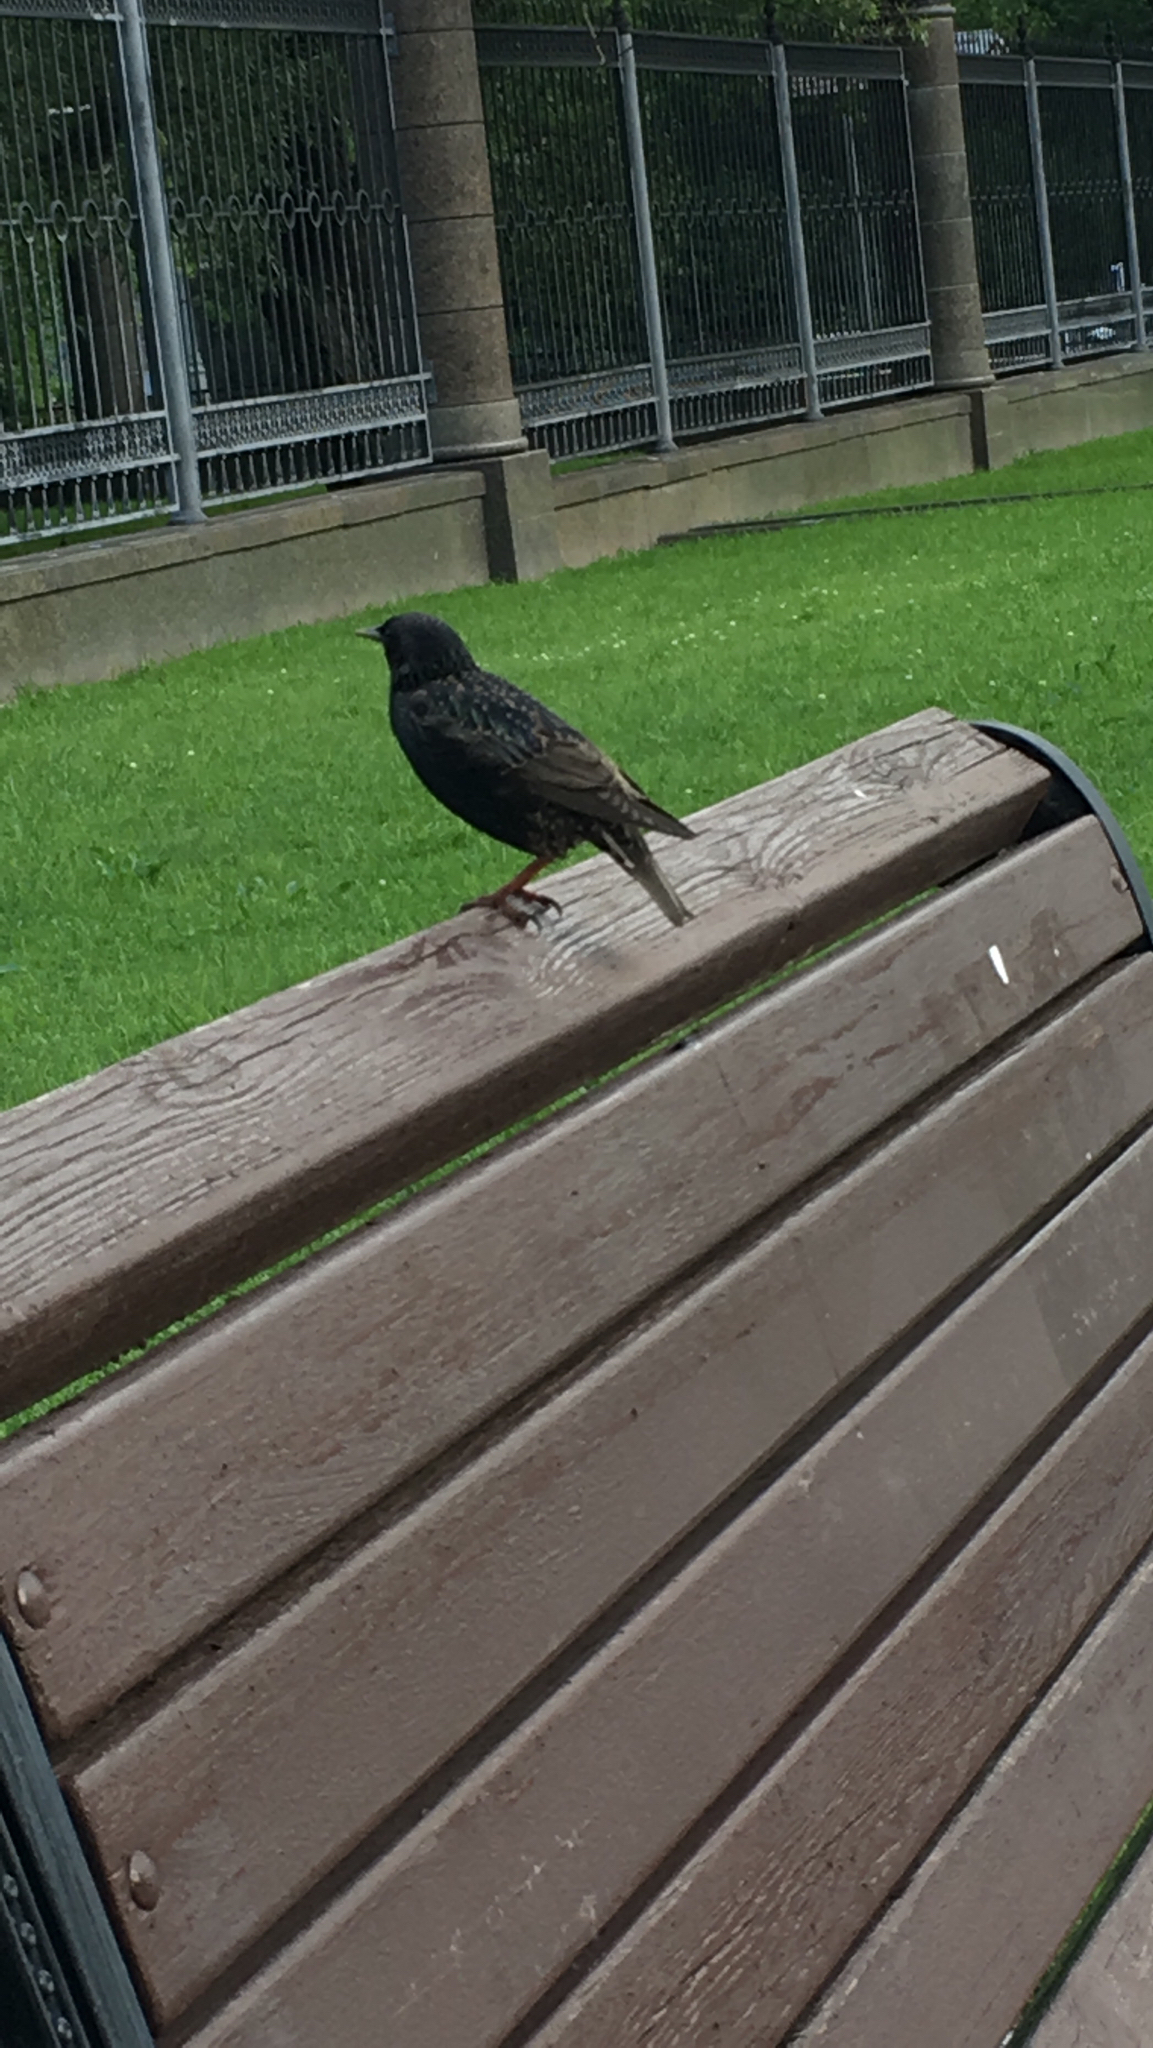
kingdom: Animalia
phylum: Chordata
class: Aves
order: Passeriformes
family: Sturnidae
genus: Sturnus
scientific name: Sturnus vulgaris
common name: Common starling
